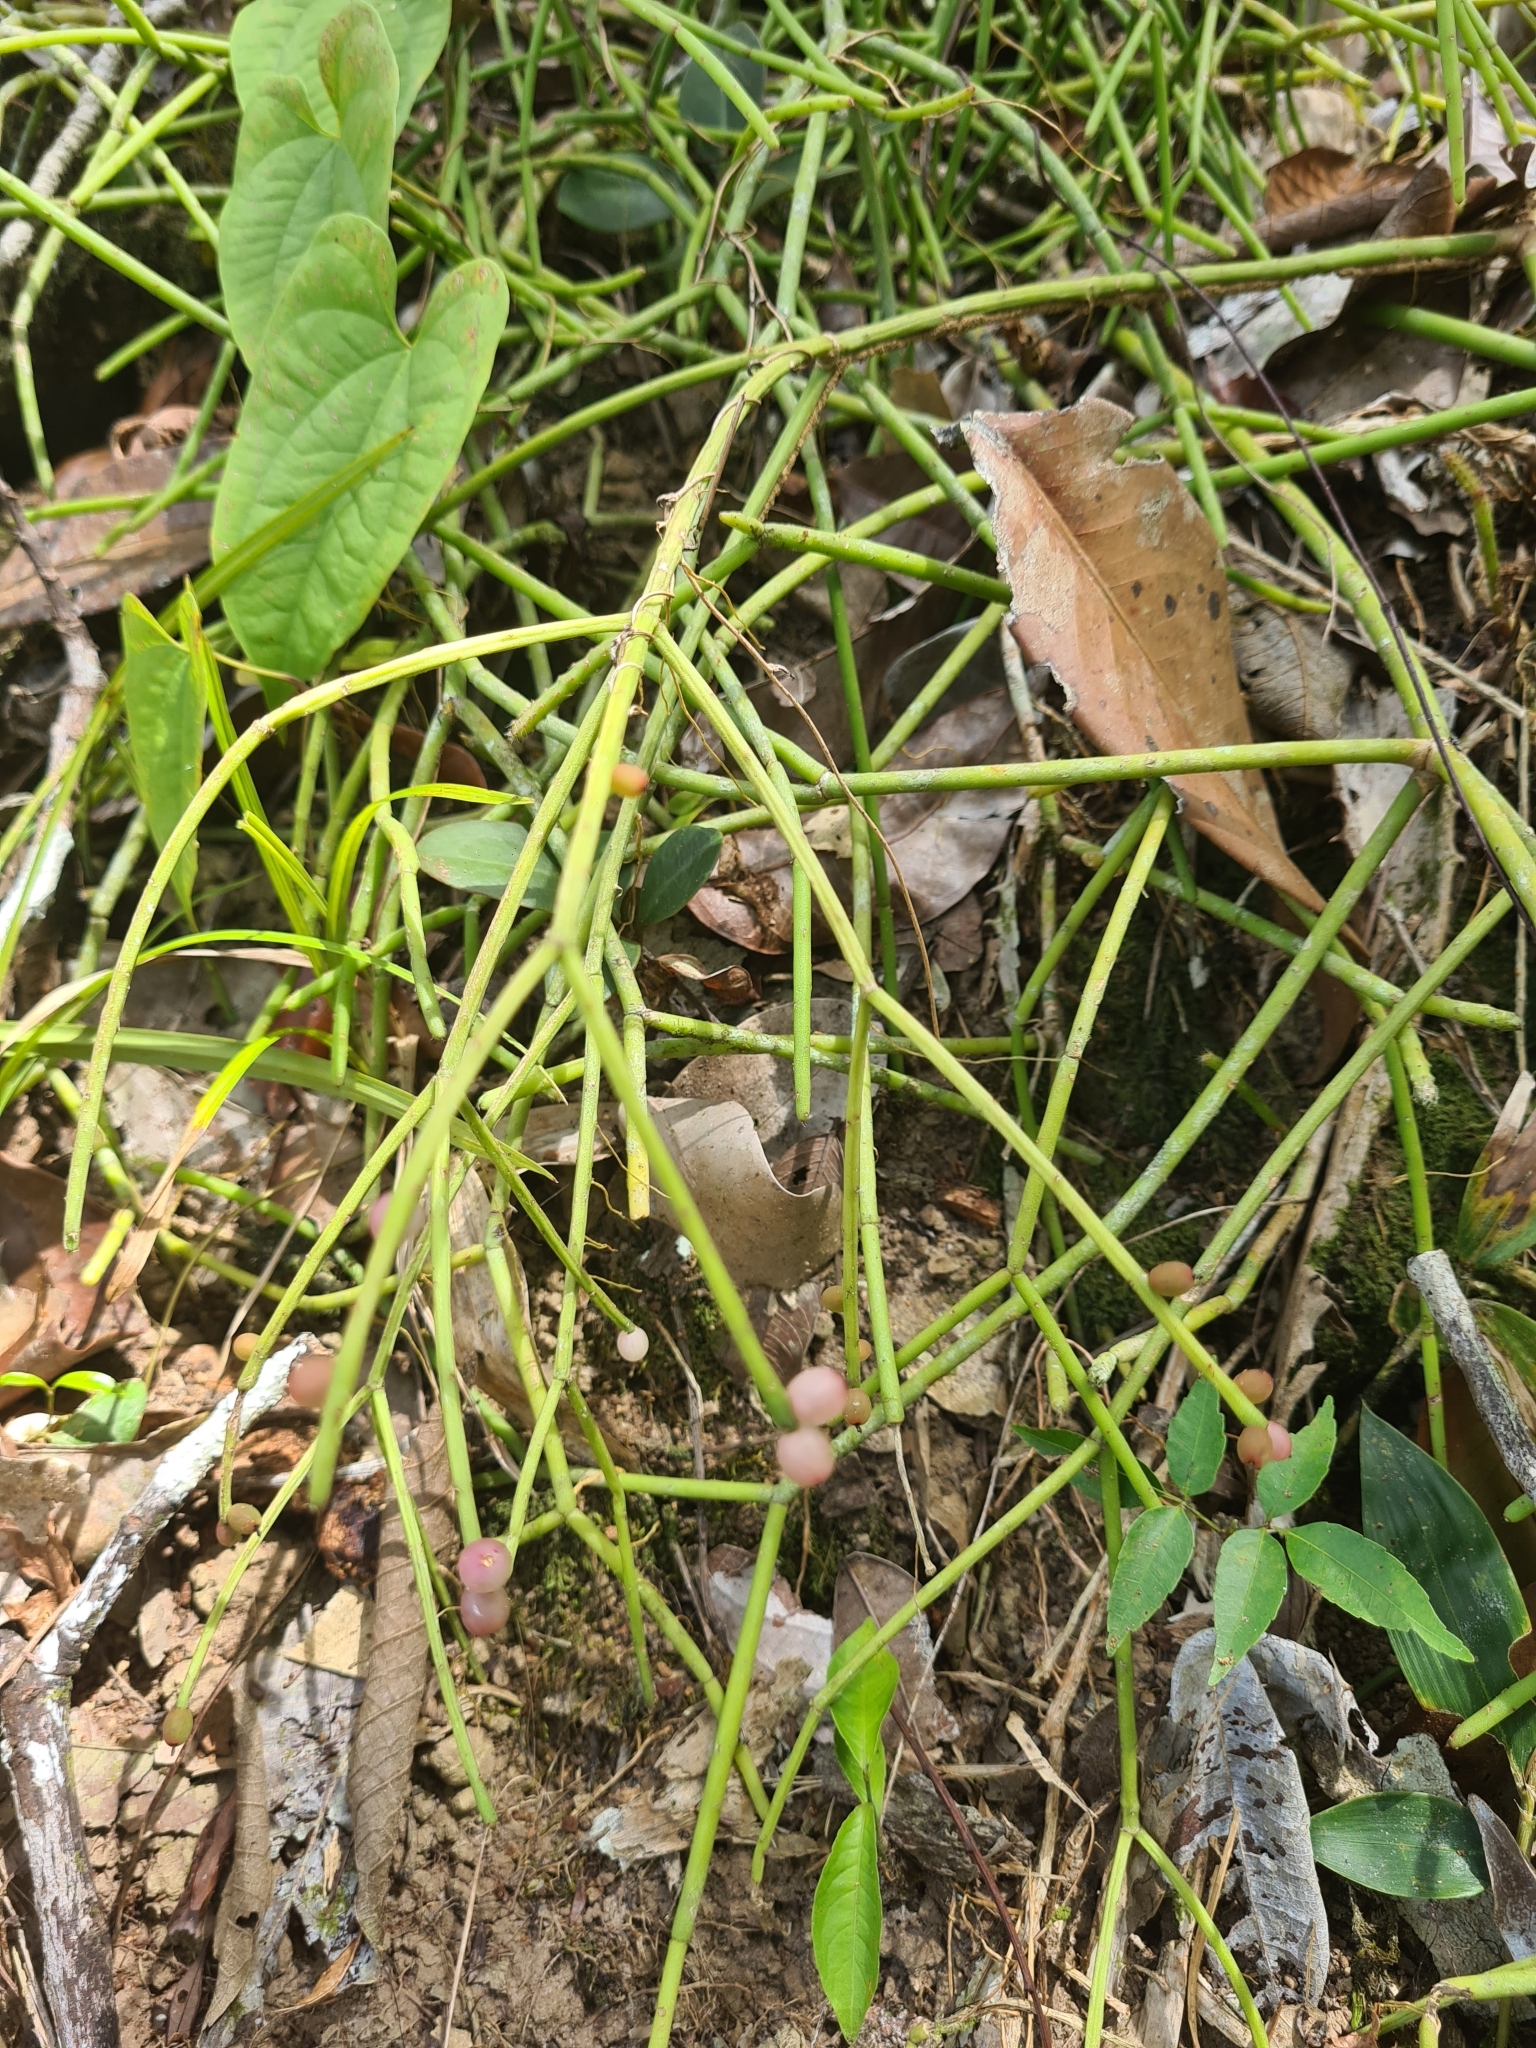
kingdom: Plantae
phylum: Tracheophyta
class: Magnoliopsida
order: Caryophyllales
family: Cactaceae
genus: Rhipsalis
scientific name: Rhipsalis baccifera
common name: Mistletoe cactus
